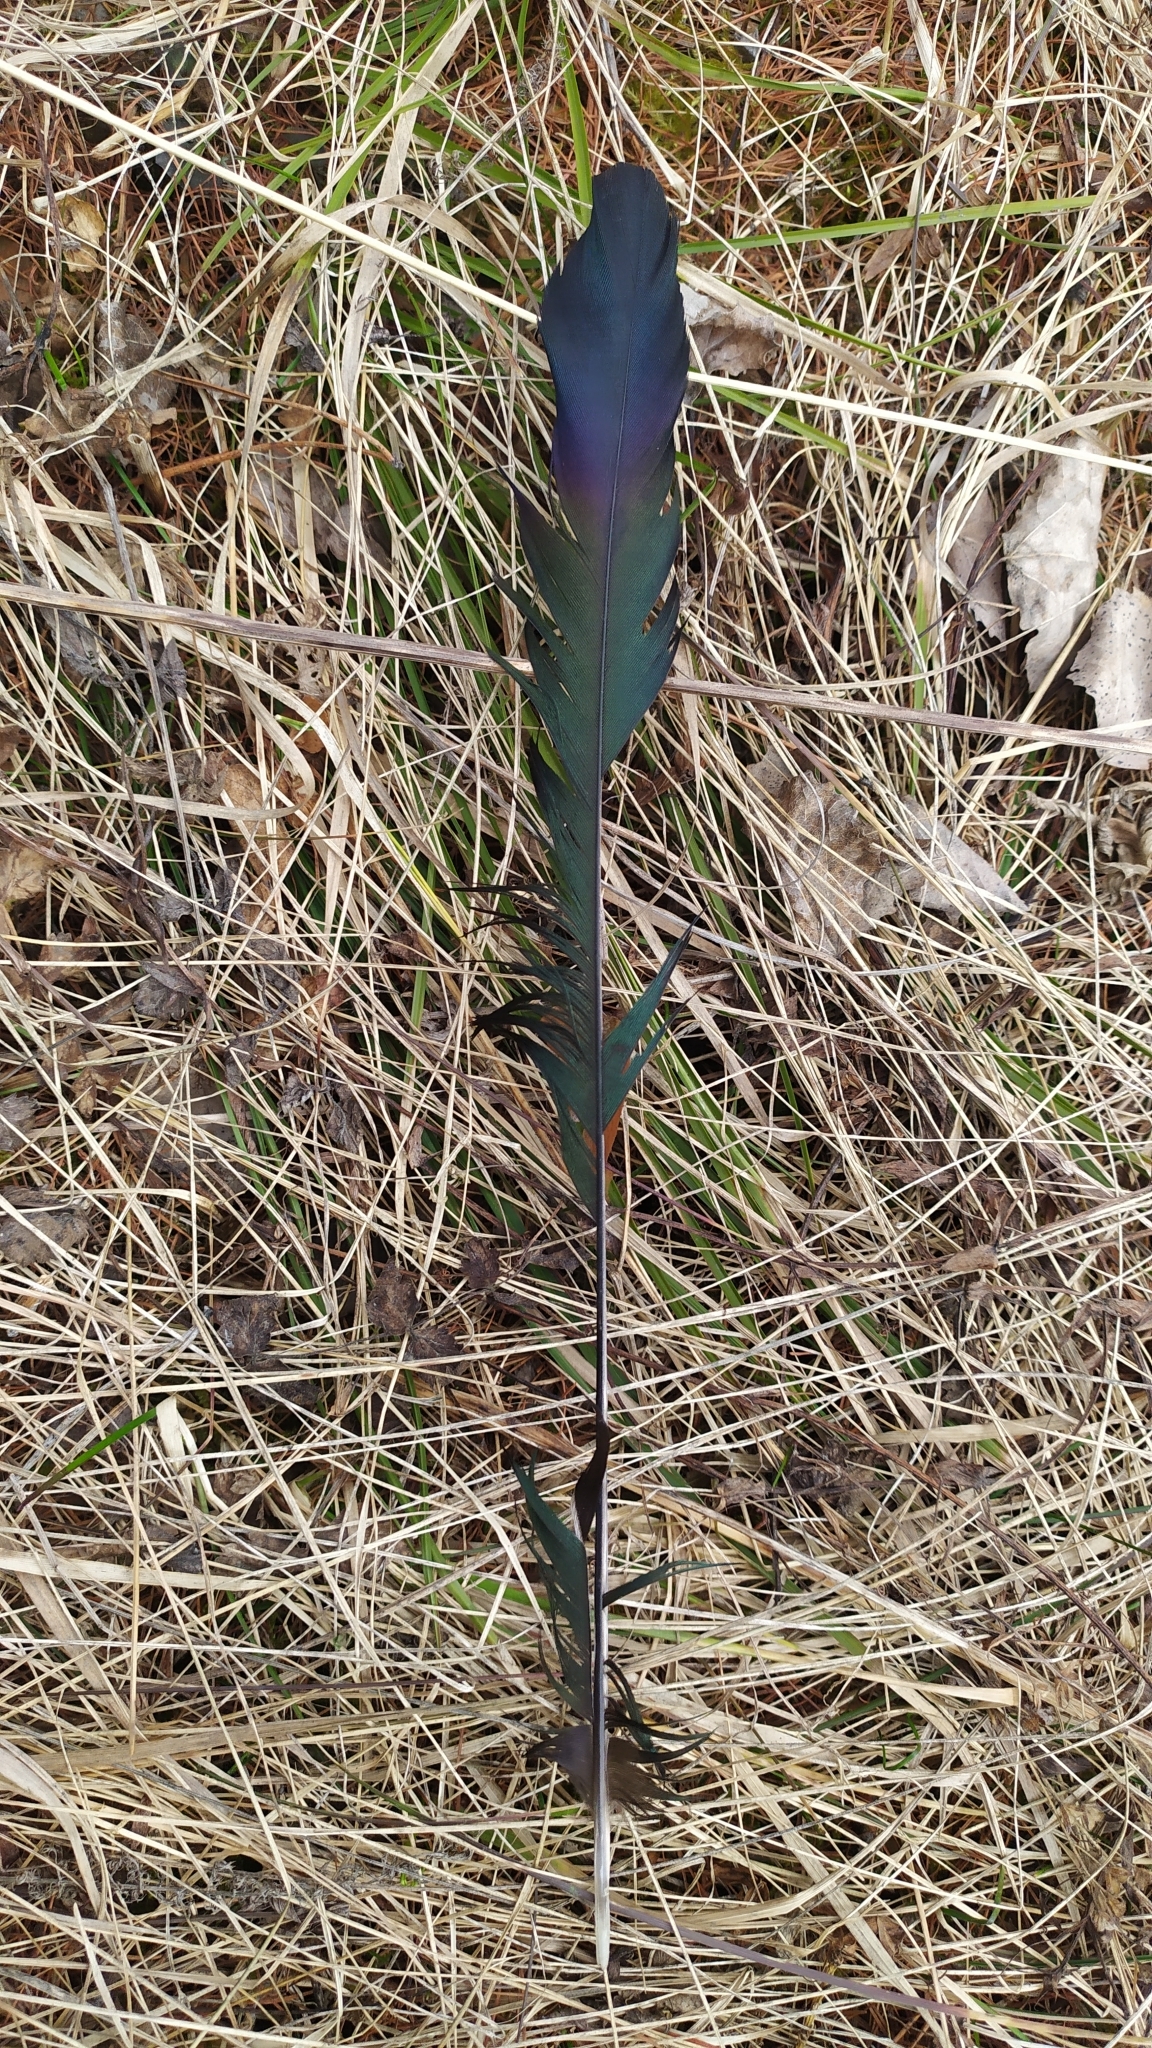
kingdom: Animalia
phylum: Chordata
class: Aves
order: Passeriformes
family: Corvidae
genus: Pica
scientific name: Pica pica
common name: Eurasian magpie
